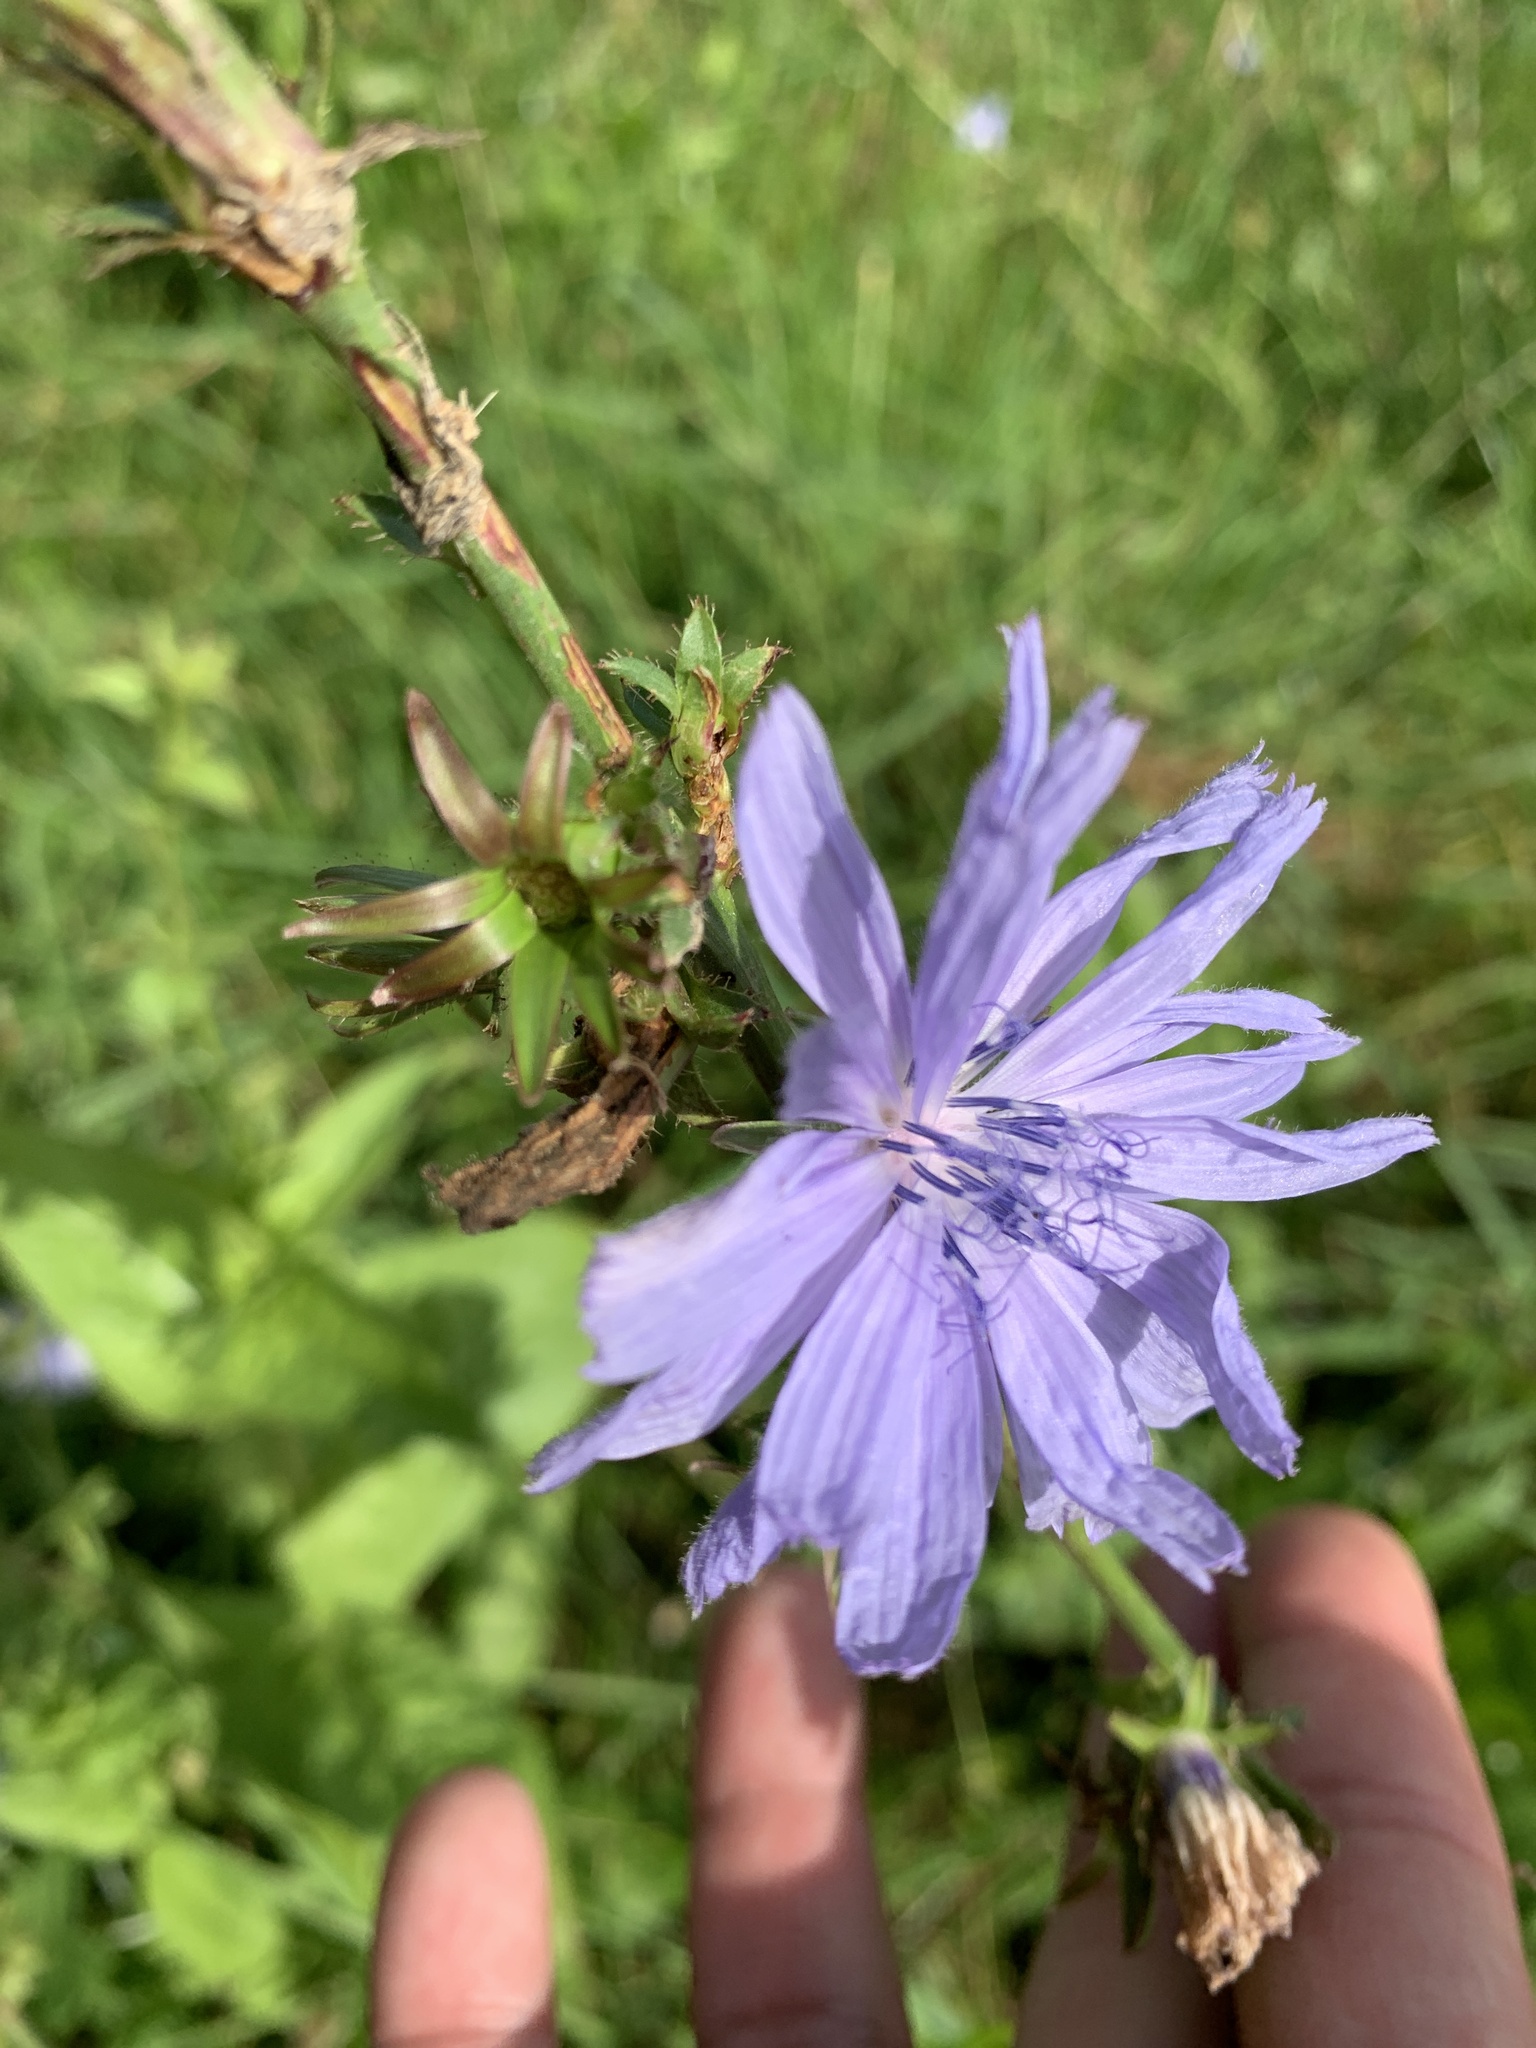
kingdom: Plantae
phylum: Tracheophyta
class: Magnoliopsida
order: Asterales
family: Asteraceae
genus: Cichorium
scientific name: Cichorium intybus
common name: Chicory
